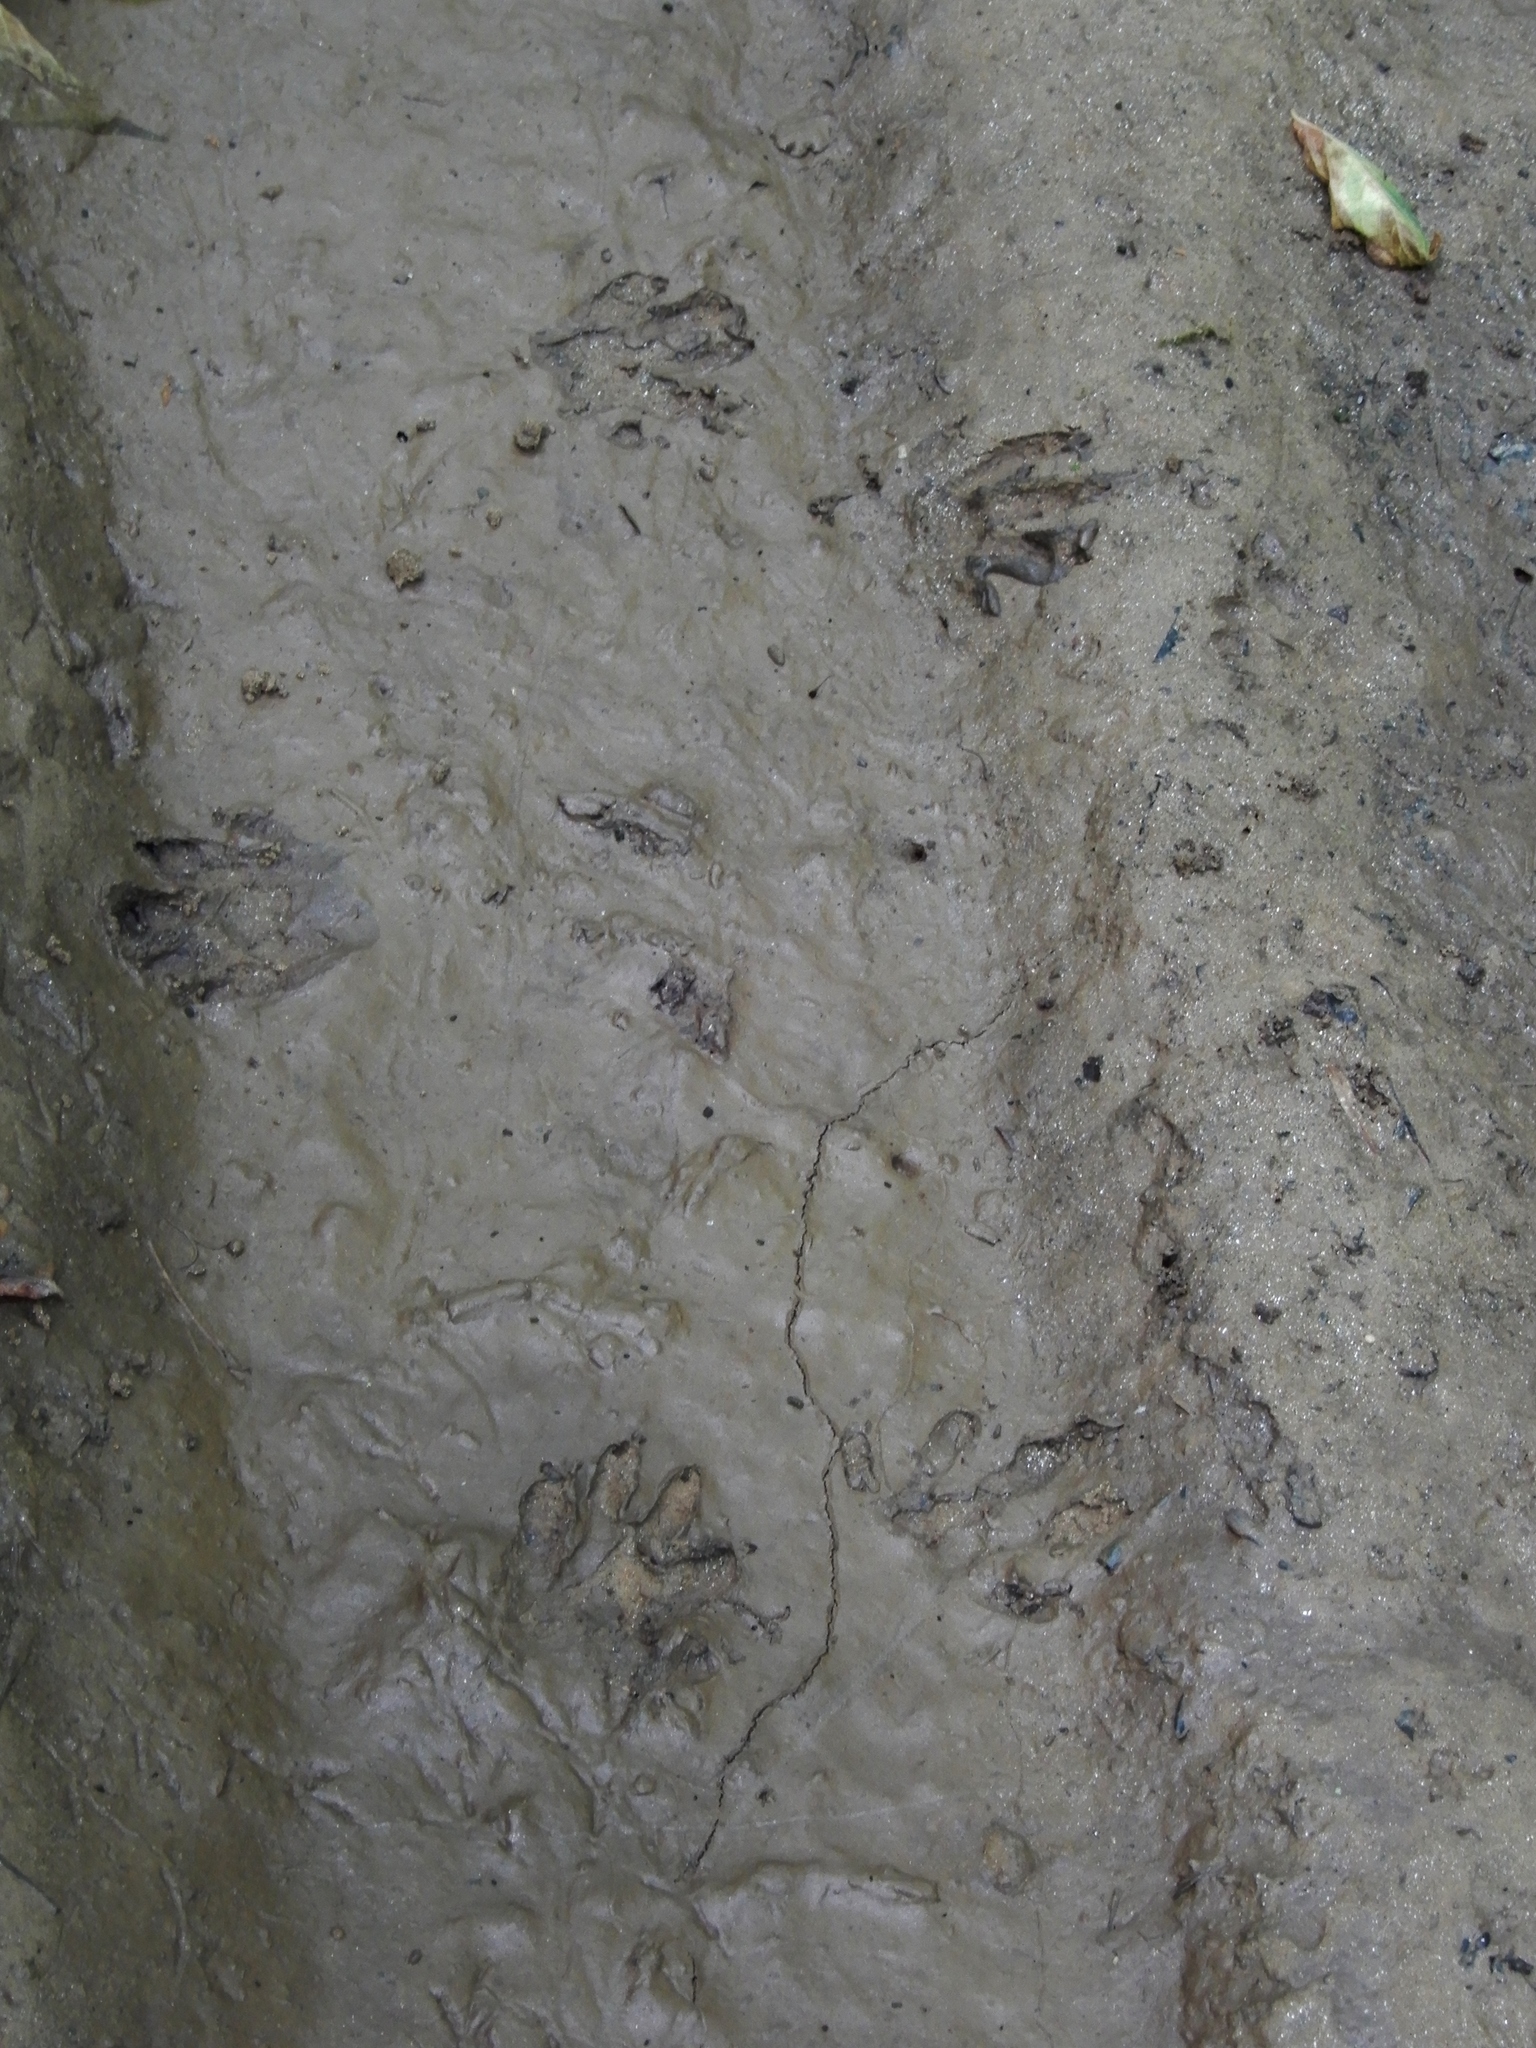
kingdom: Animalia
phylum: Chordata
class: Mammalia
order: Carnivora
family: Procyonidae
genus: Procyon
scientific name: Procyon lotor
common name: Raccoon
